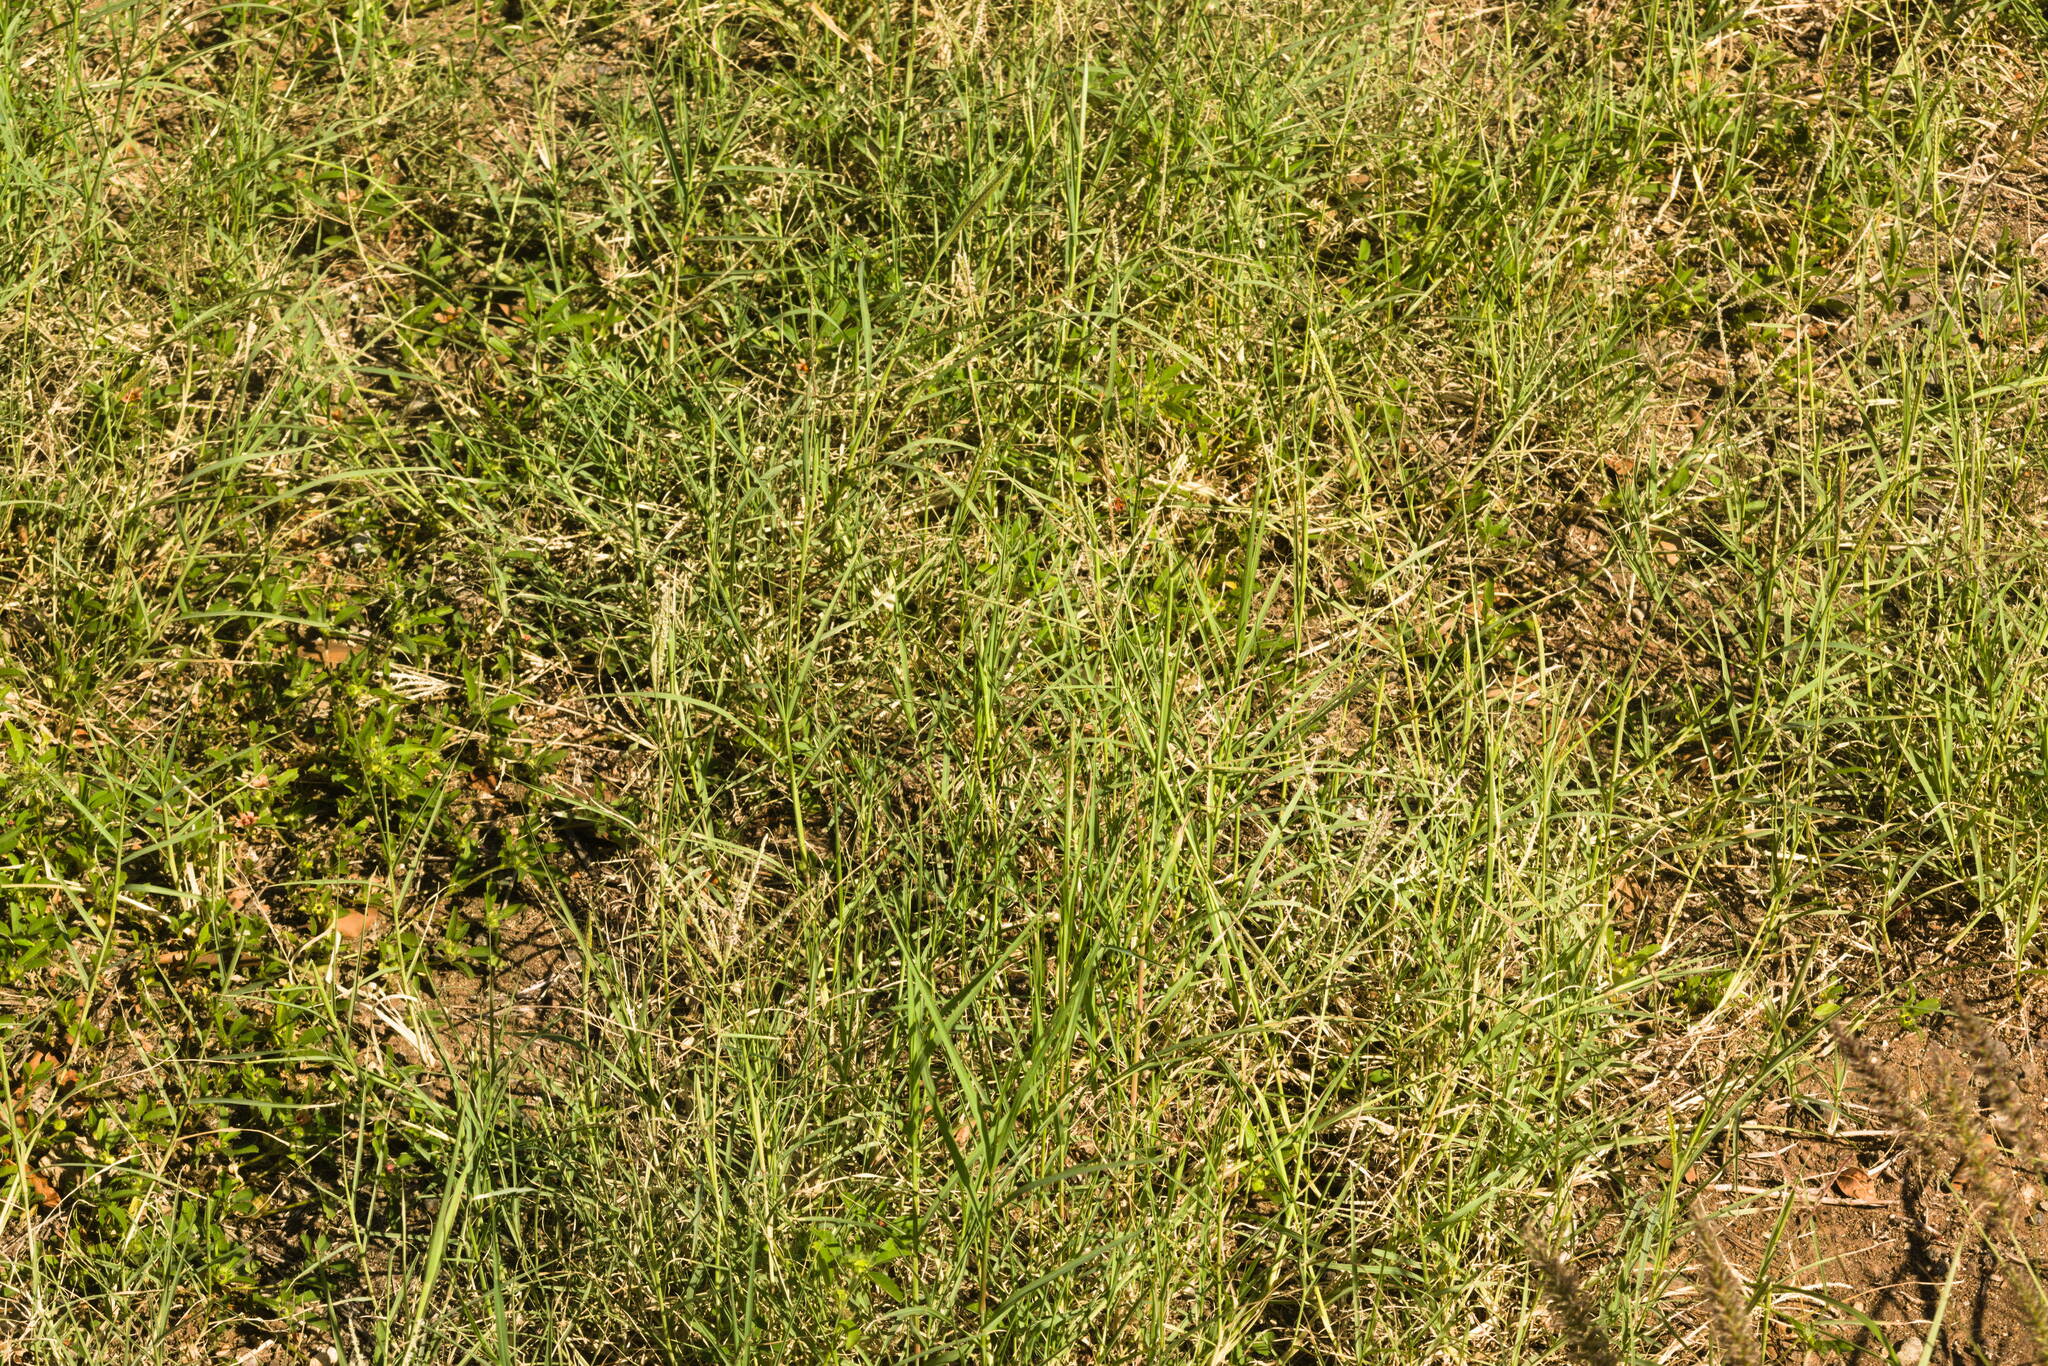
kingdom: Plantae
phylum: Tracheophyta
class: Liliopsida
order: Poales
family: Poaceae
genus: Cynodon
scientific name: Cynodon dactylon
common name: Bermuda grass
